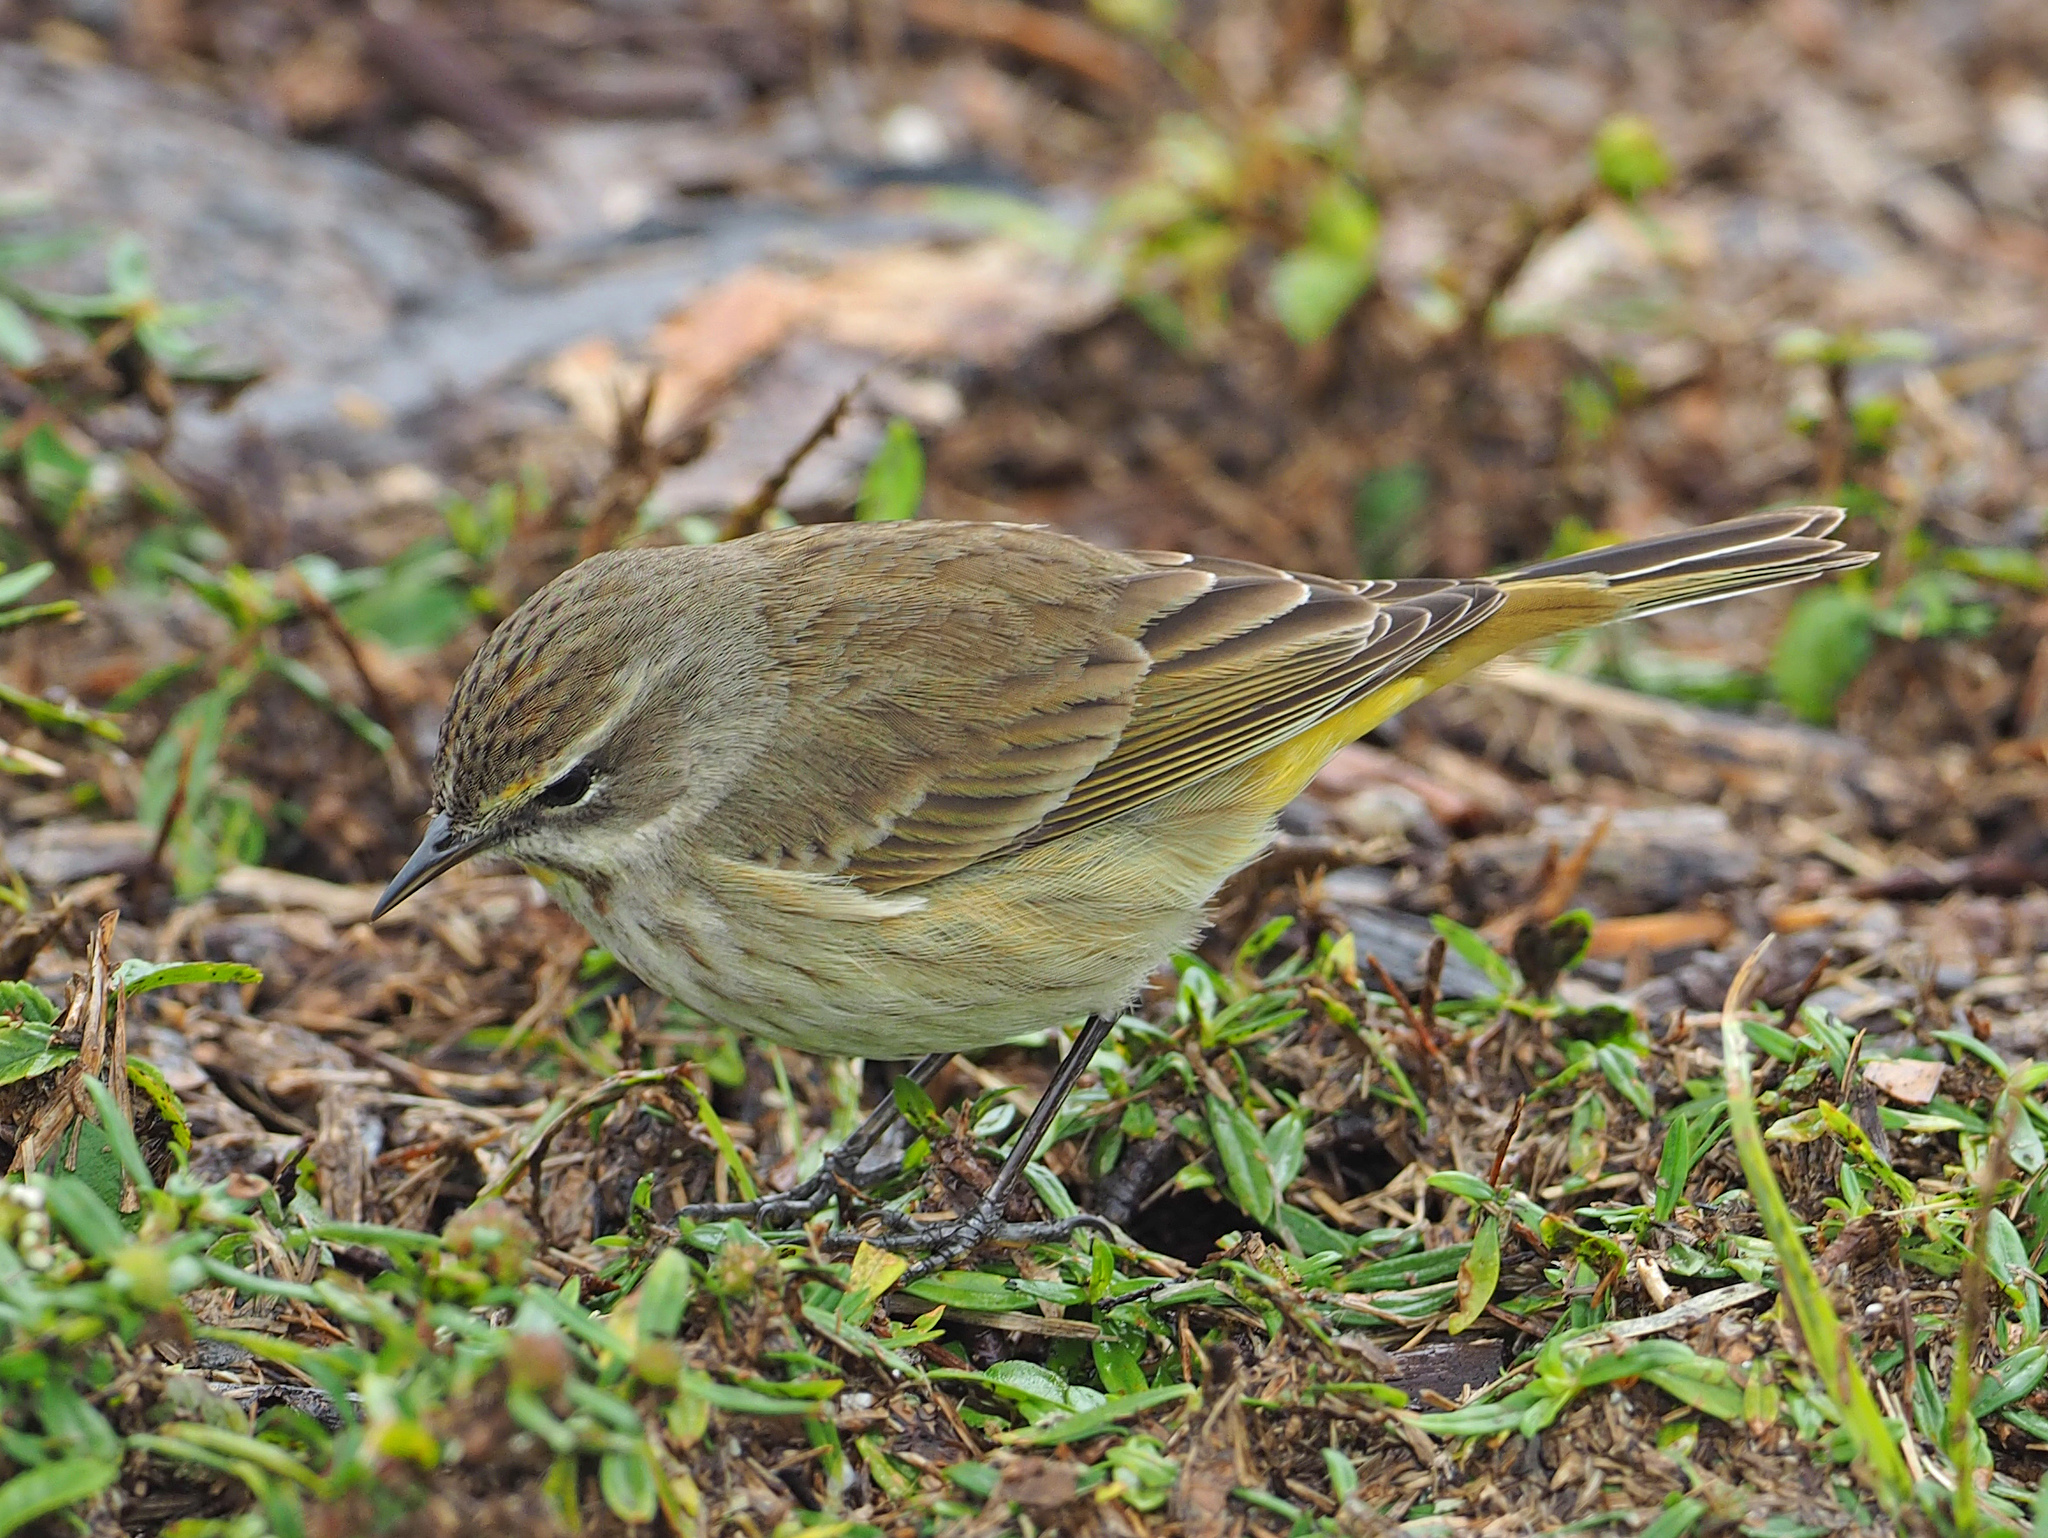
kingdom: Animalia
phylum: Chordata
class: Aves
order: Passeriformes
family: Parulidae
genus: Setophaga
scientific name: Setophaga palmarum
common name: Palm warbler
